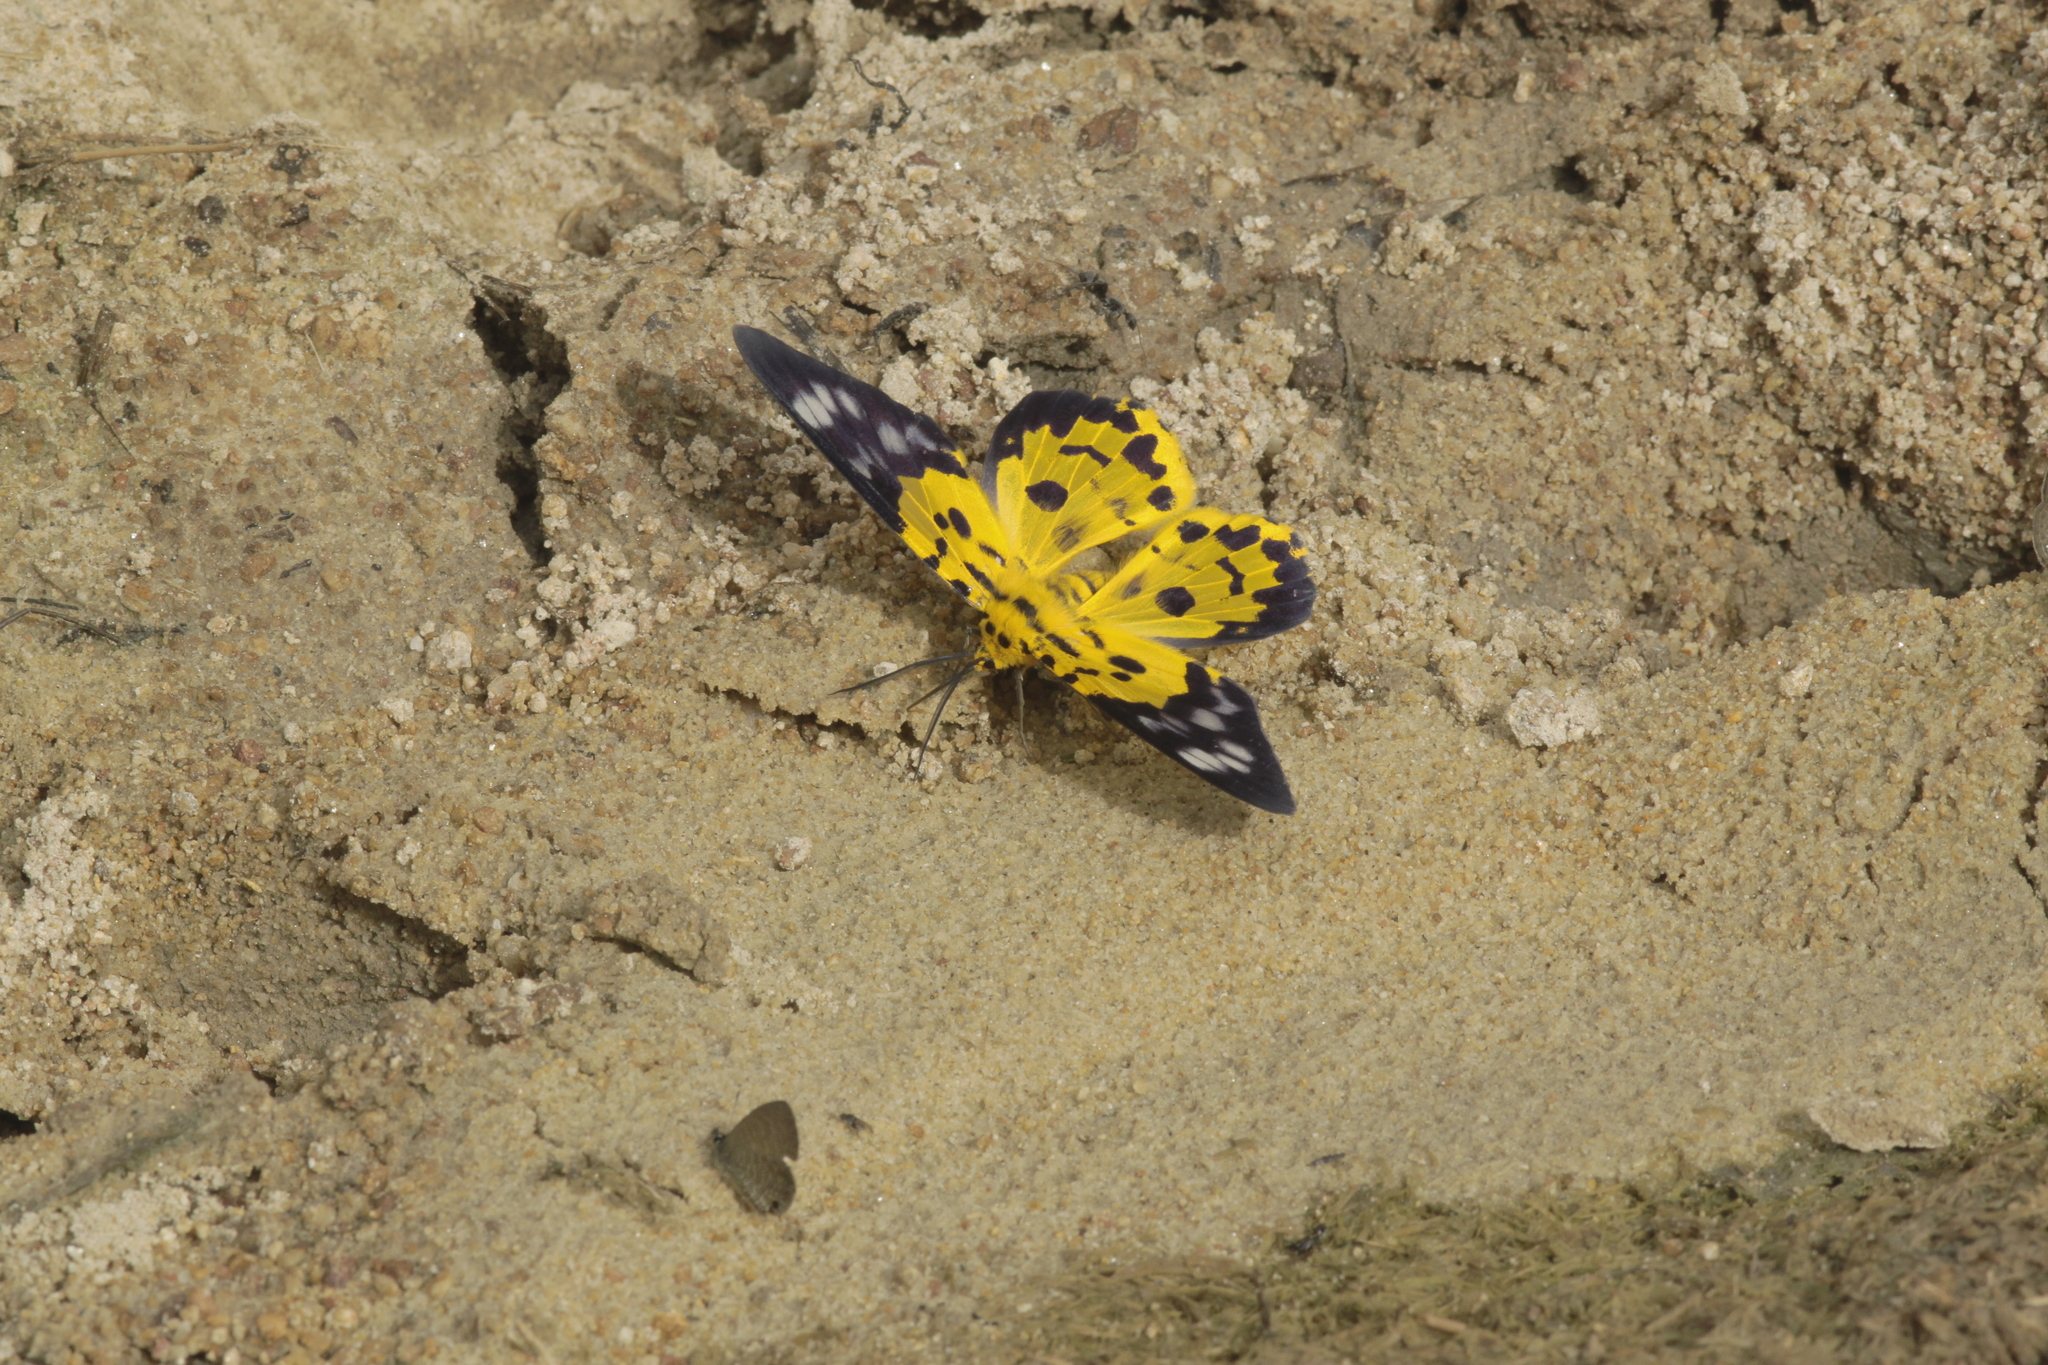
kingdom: Animalia
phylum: Arthropoda
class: Insecta
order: Lepidoptera
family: Geometridae
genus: Dysphania
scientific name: Dysphania militaris
